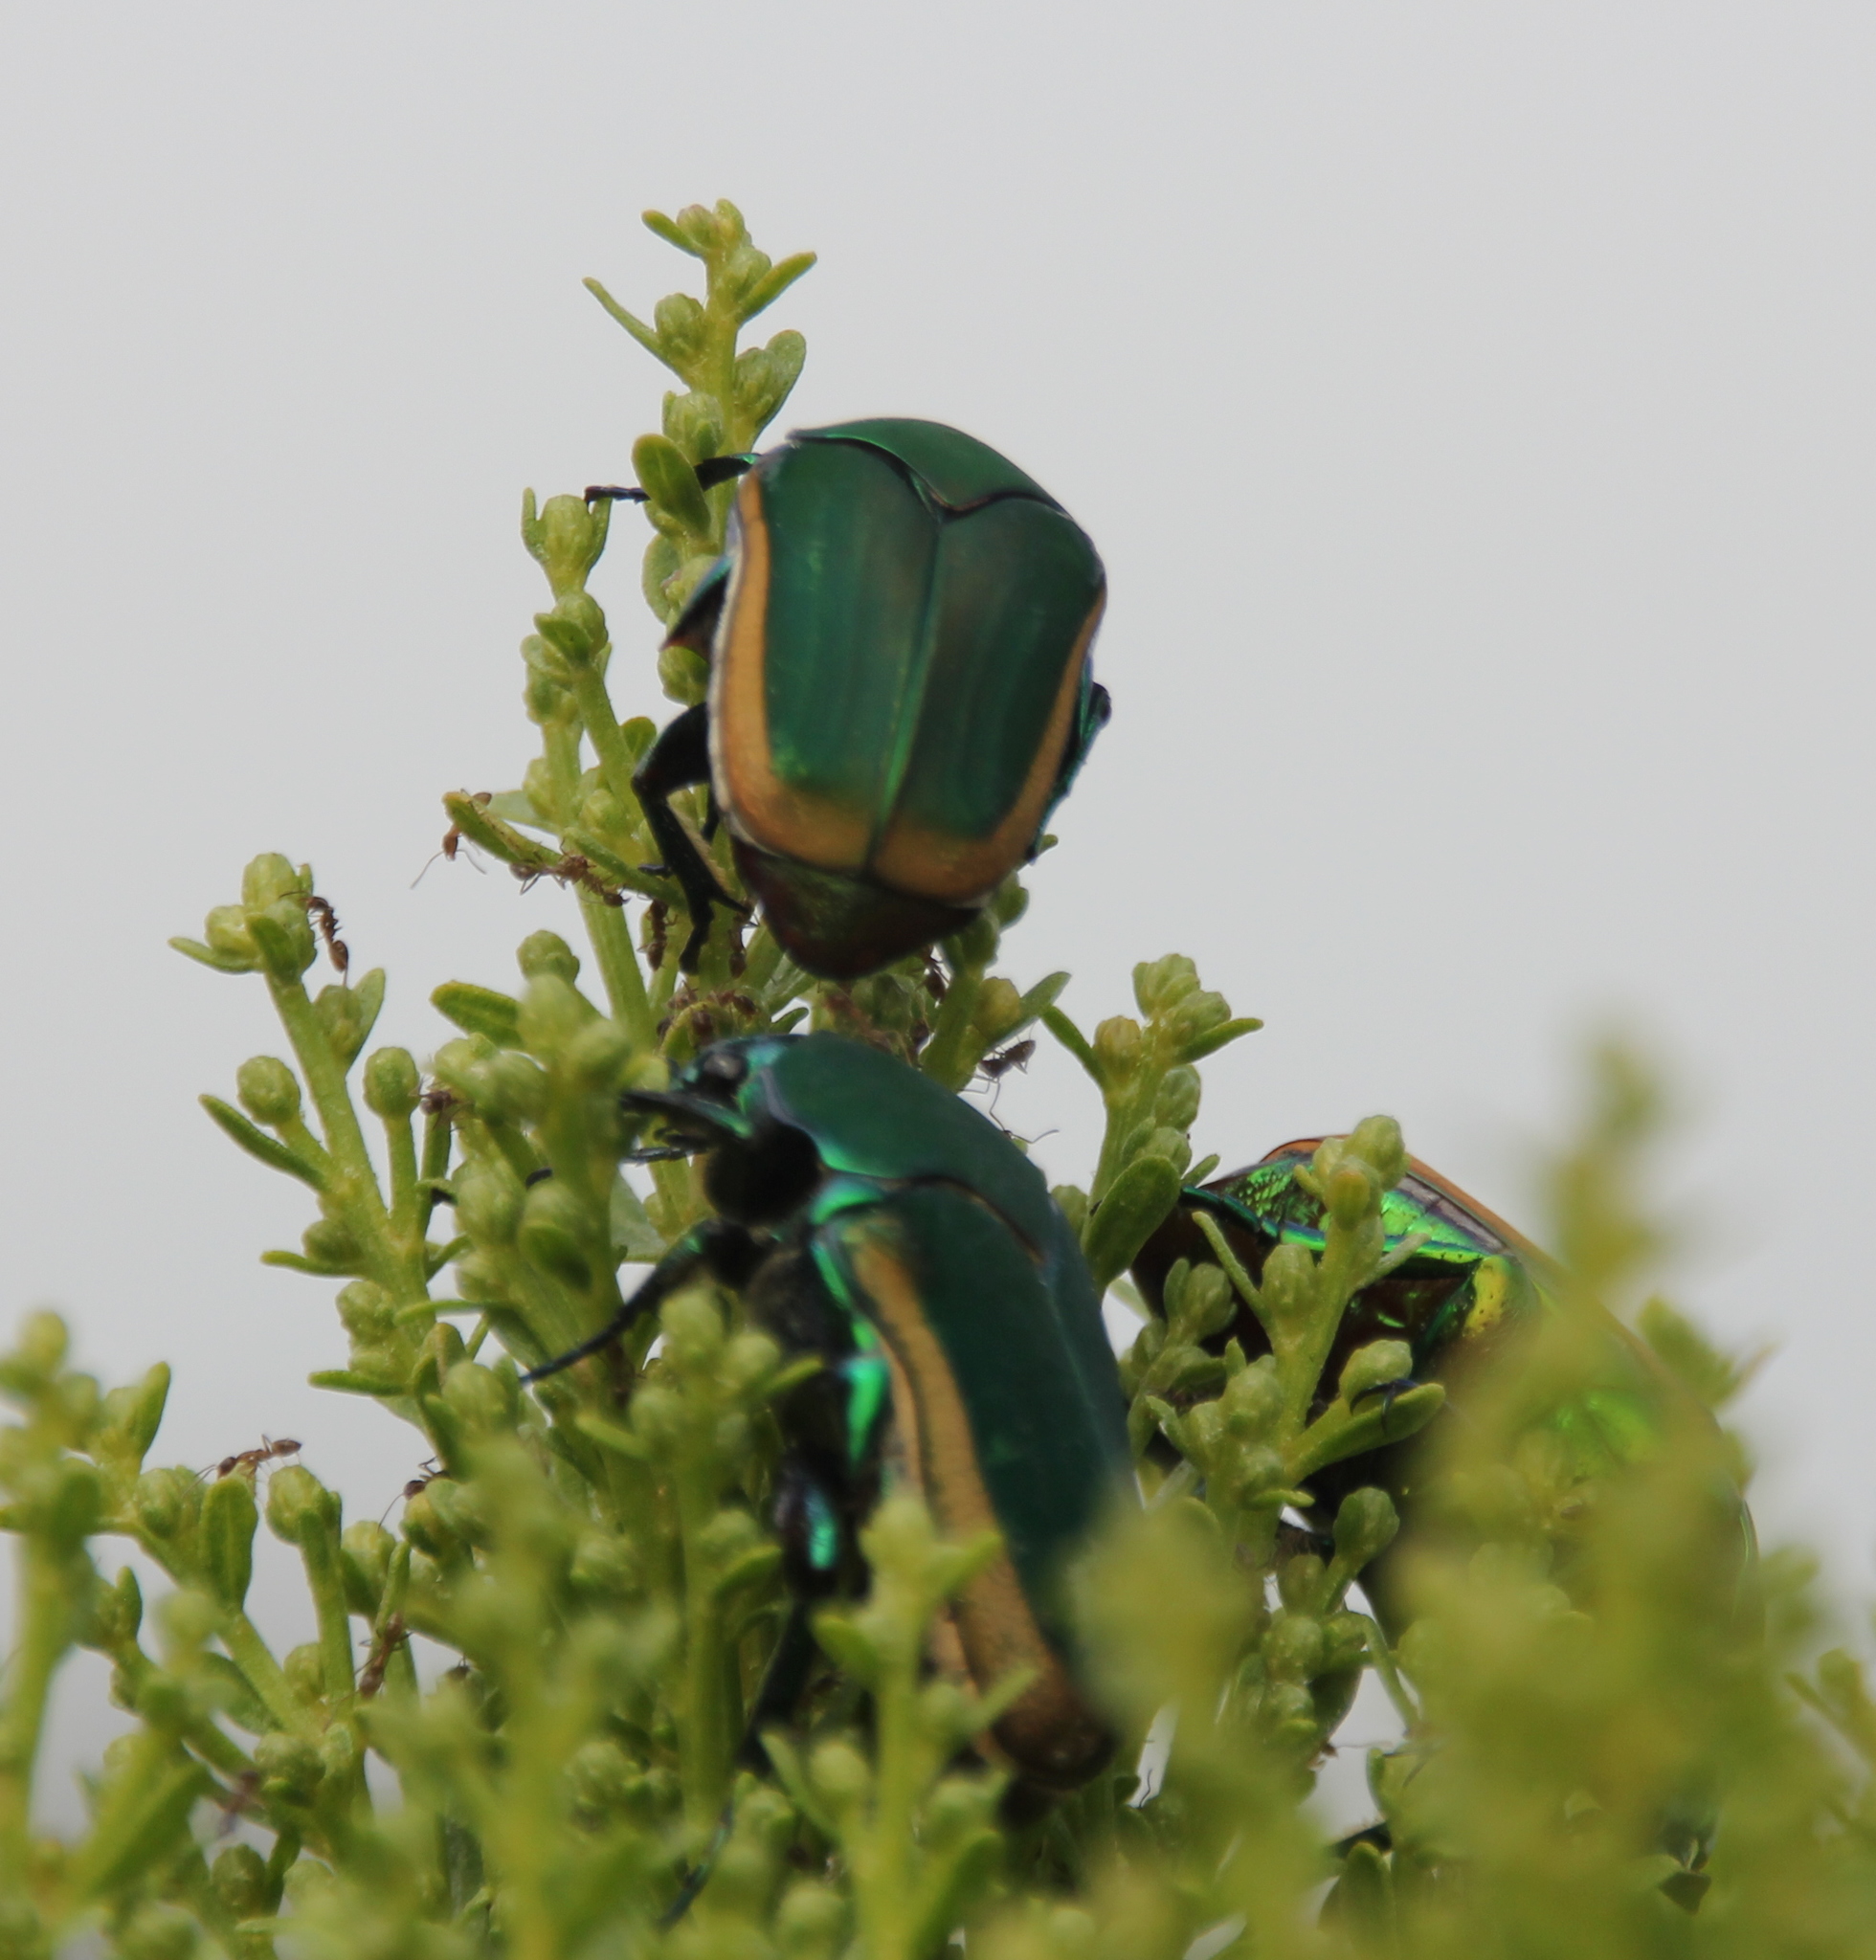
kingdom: Animalia
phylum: Arthropoda
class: Insecta
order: Coleoptera
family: Scarabaeidae
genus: Cotinis
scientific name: Cotinis mutabilis
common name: Figeater beetle
